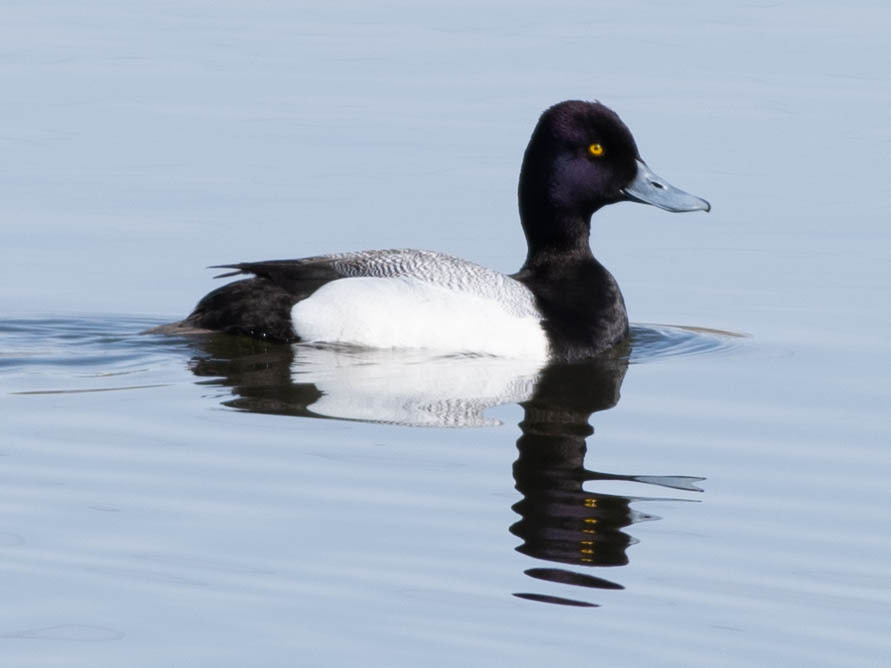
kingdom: Animalia
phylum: Chordata
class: Aves
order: Anseriformes
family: Anatidae
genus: Aythya
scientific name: Aythya affinis
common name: Lesser scaup
